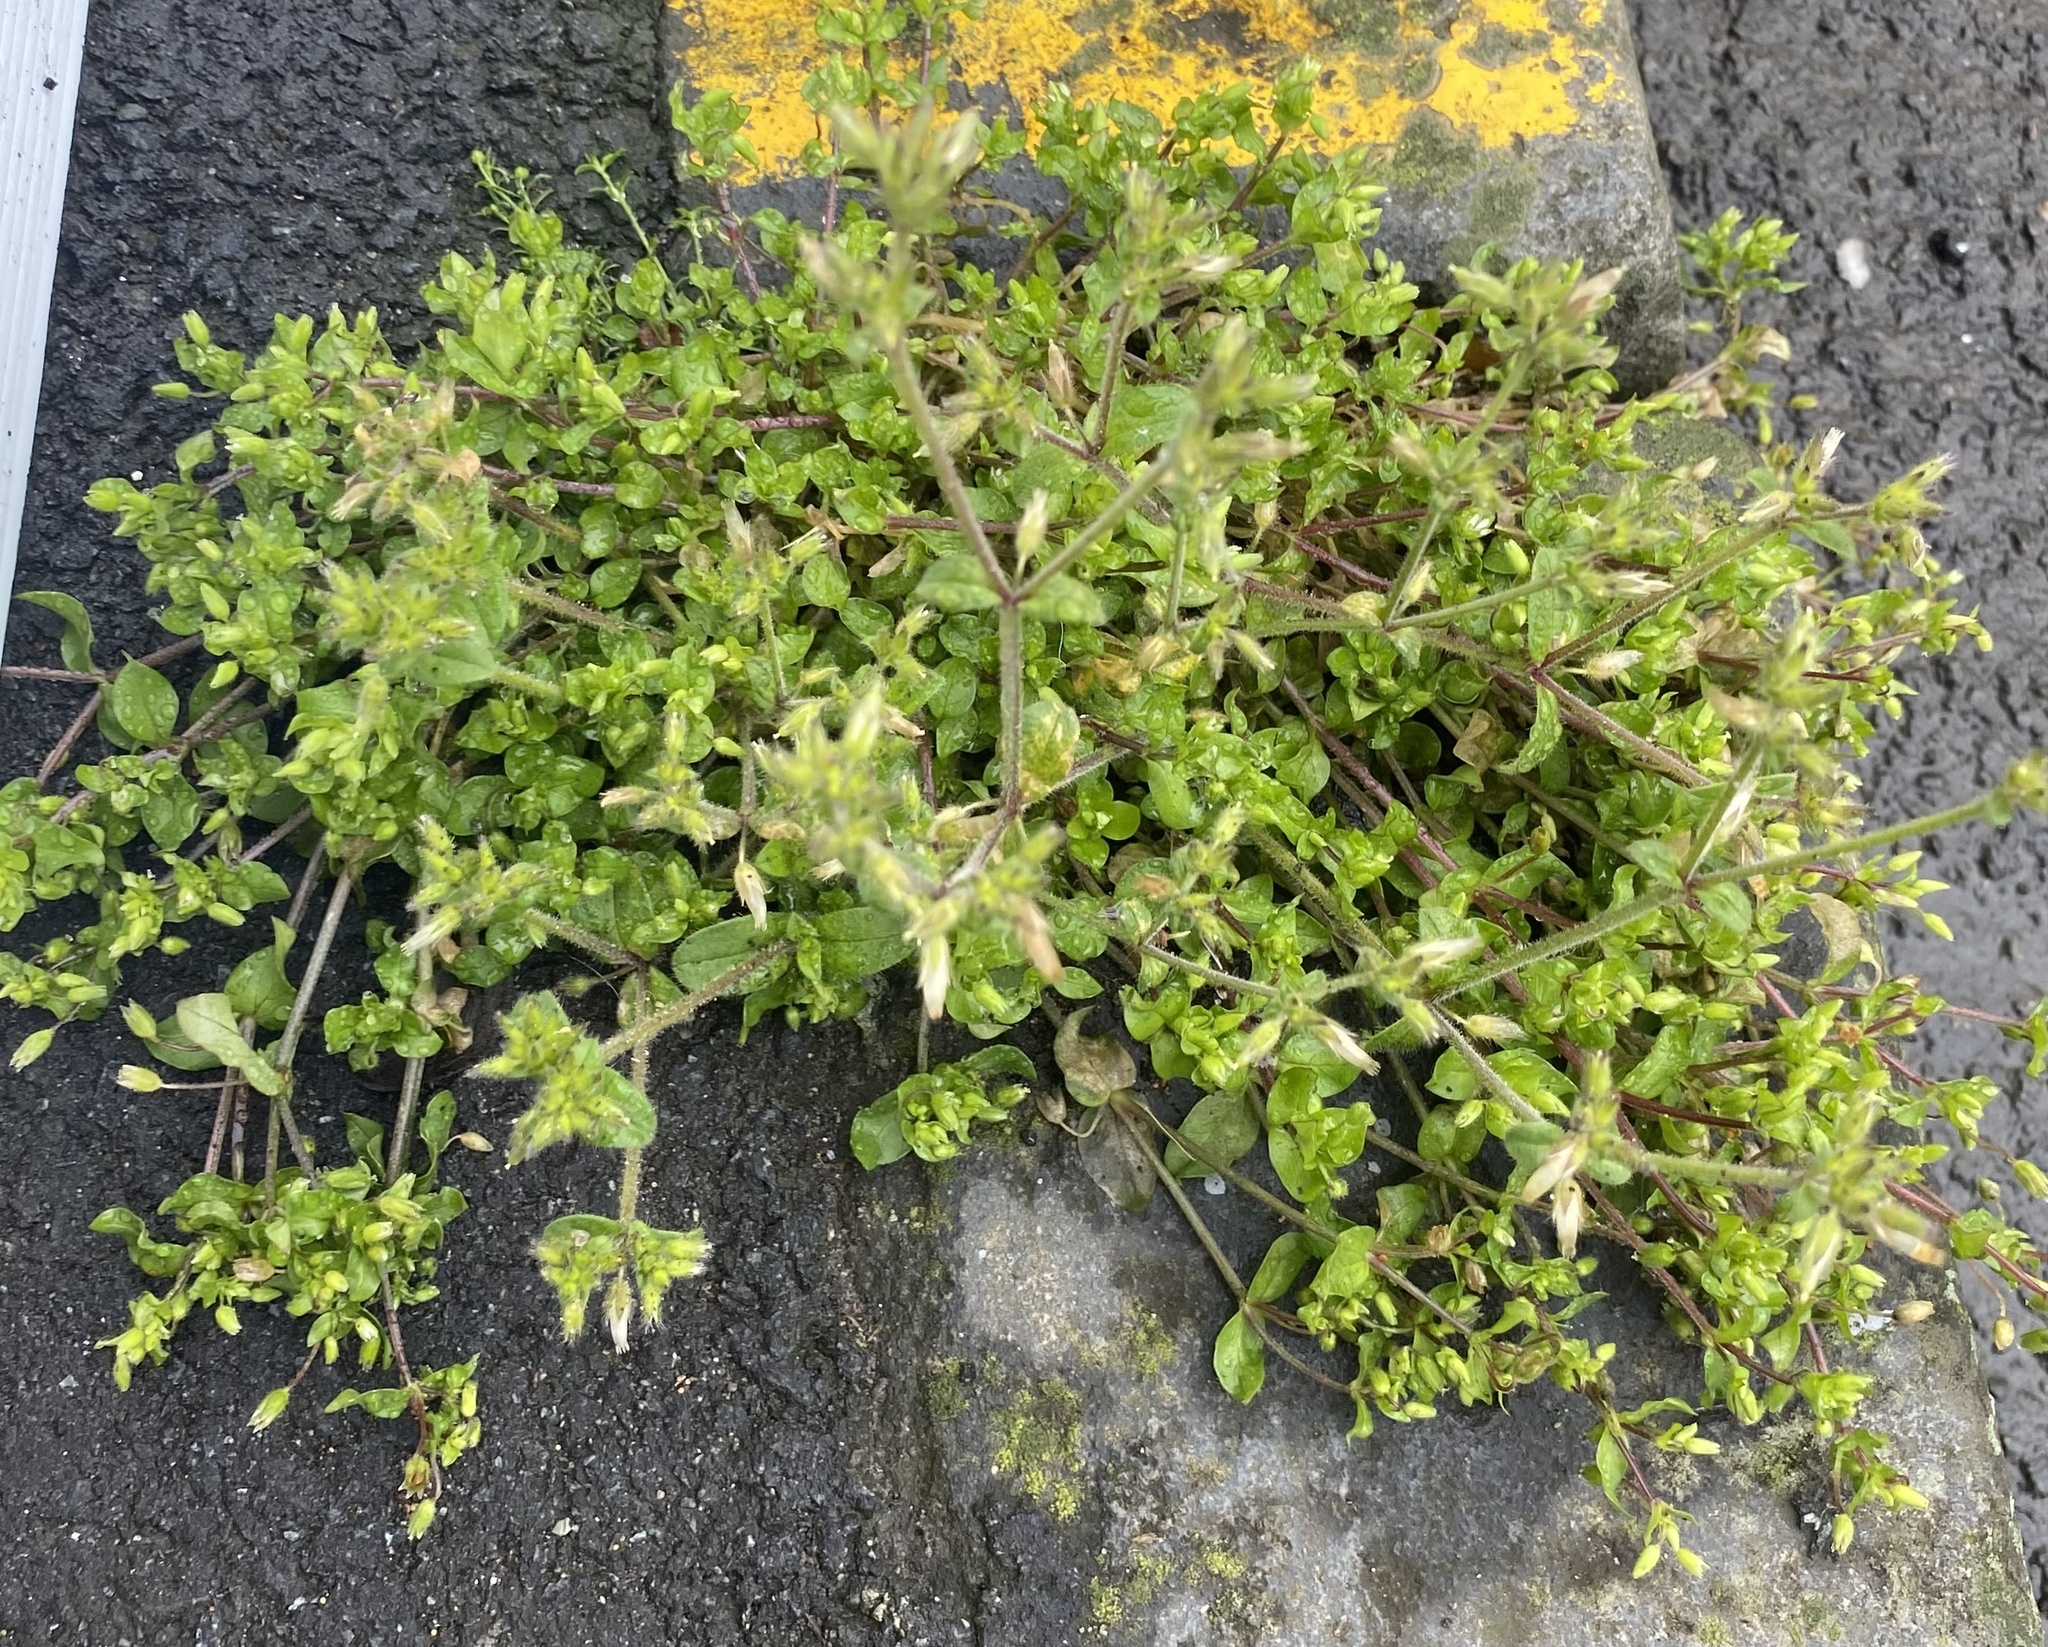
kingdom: Plantae
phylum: Tracheophyta
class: Magnoliopsida
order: Caryophyllales
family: Caryophyllaceae
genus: Cerastium
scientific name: Cerastium glomeratum
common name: Sticky chickweed
